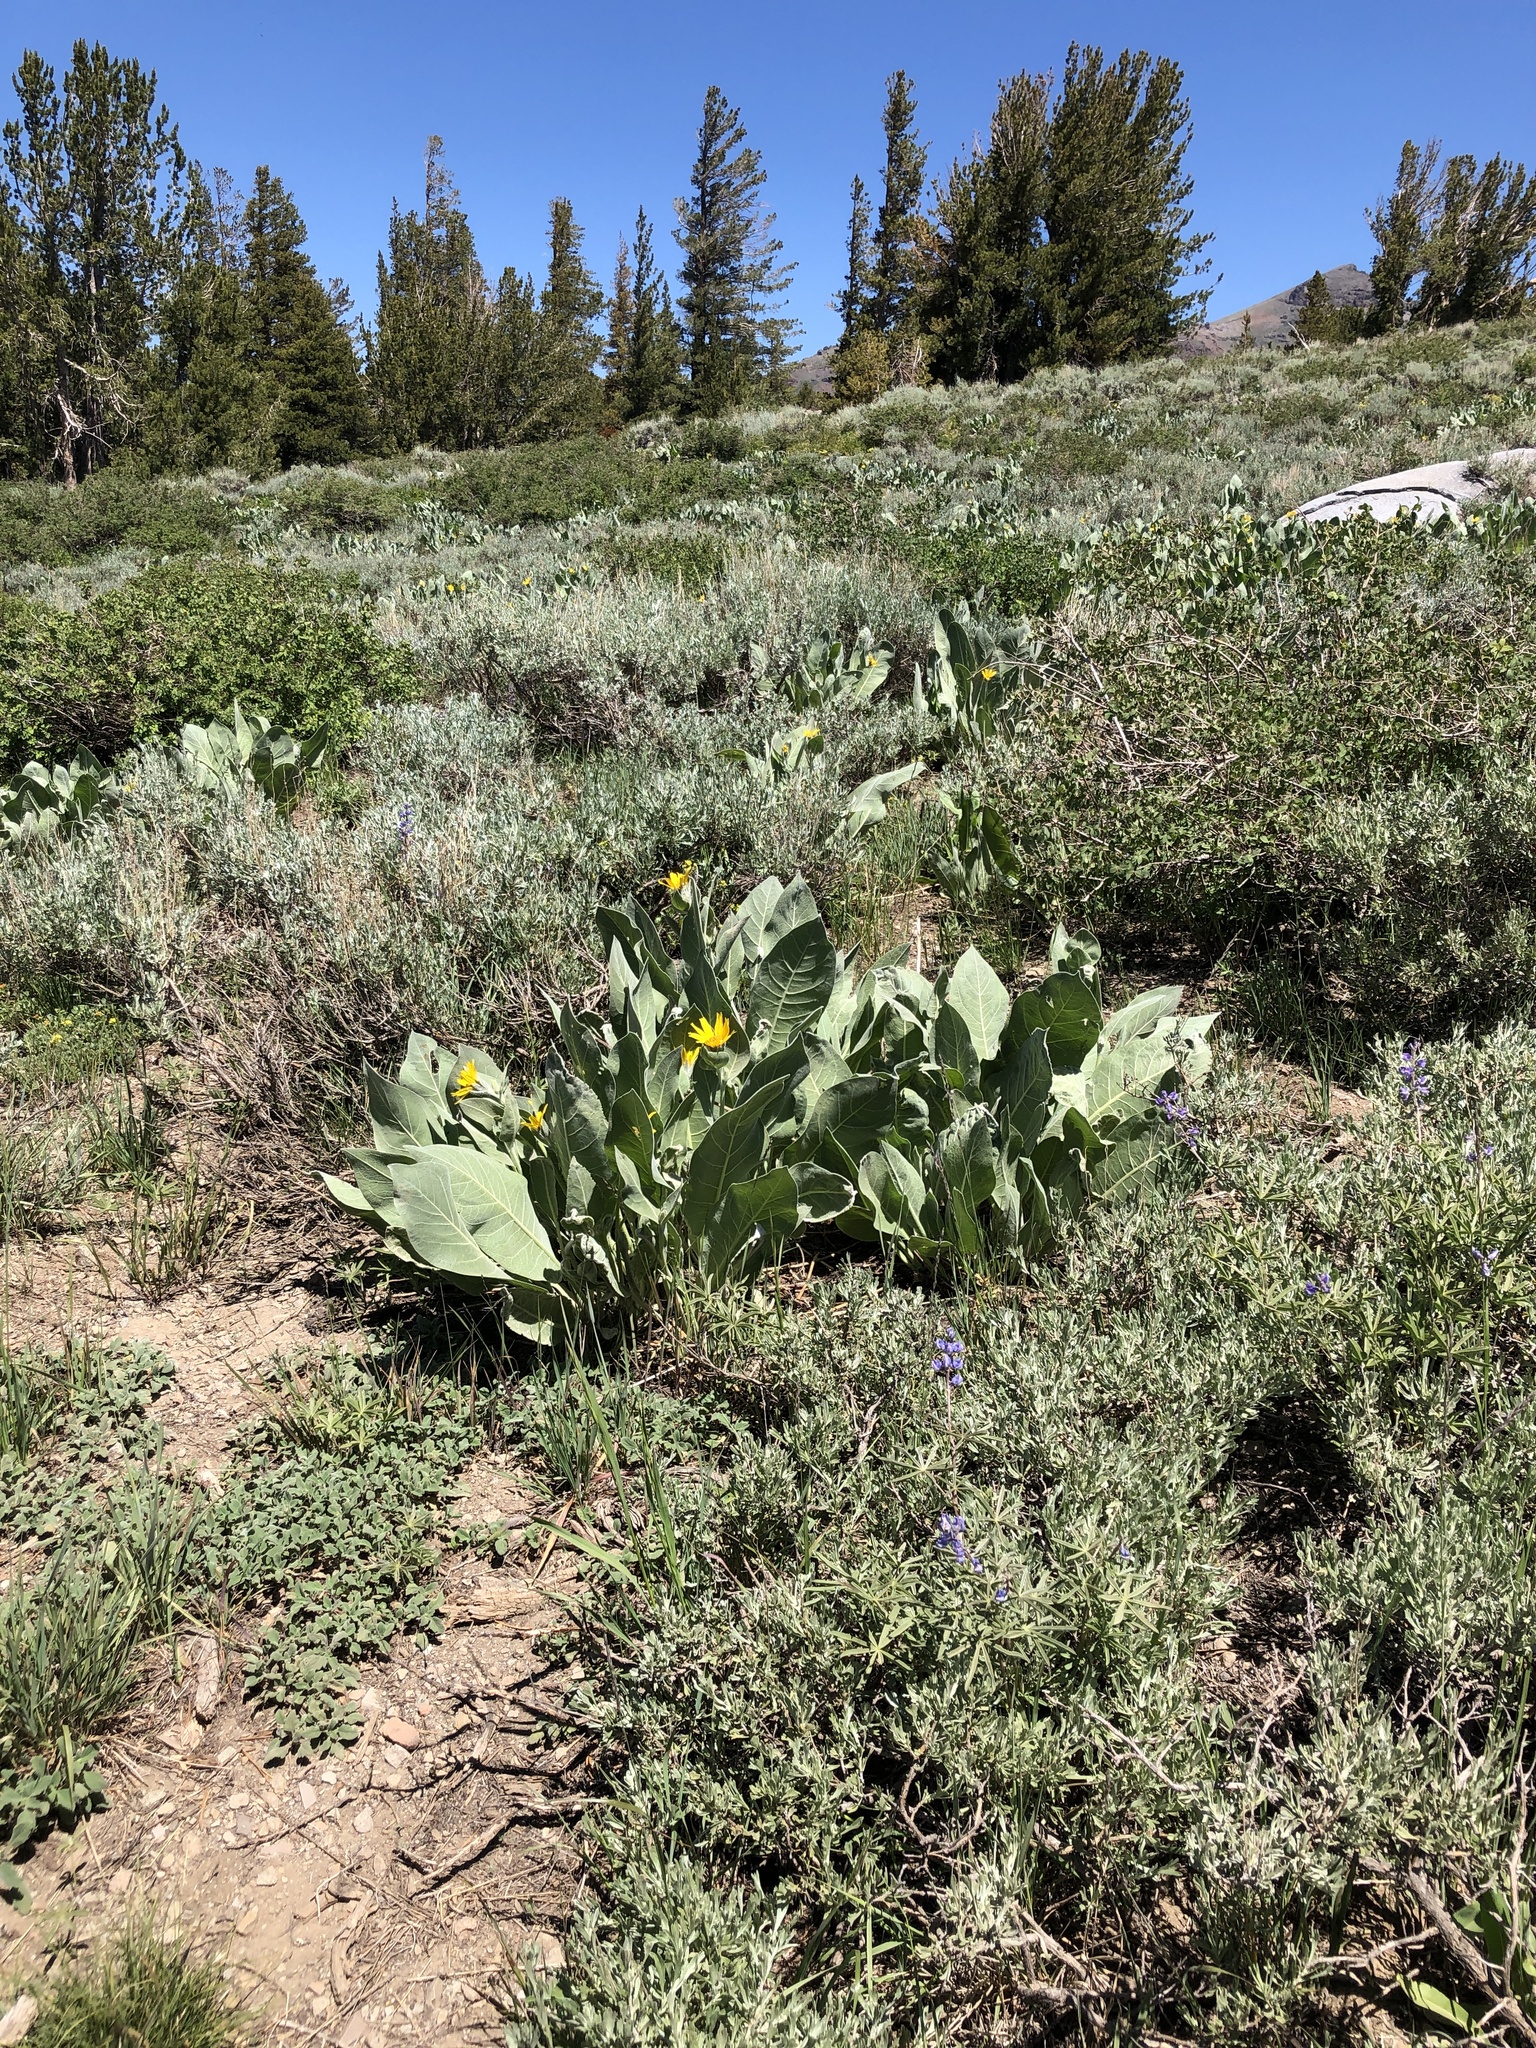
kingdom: Plantae
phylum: Tracheophyta
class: Magnoliopsida
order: Asterales
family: Asteraceae
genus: Wyethia
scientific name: Wyethia mollis
